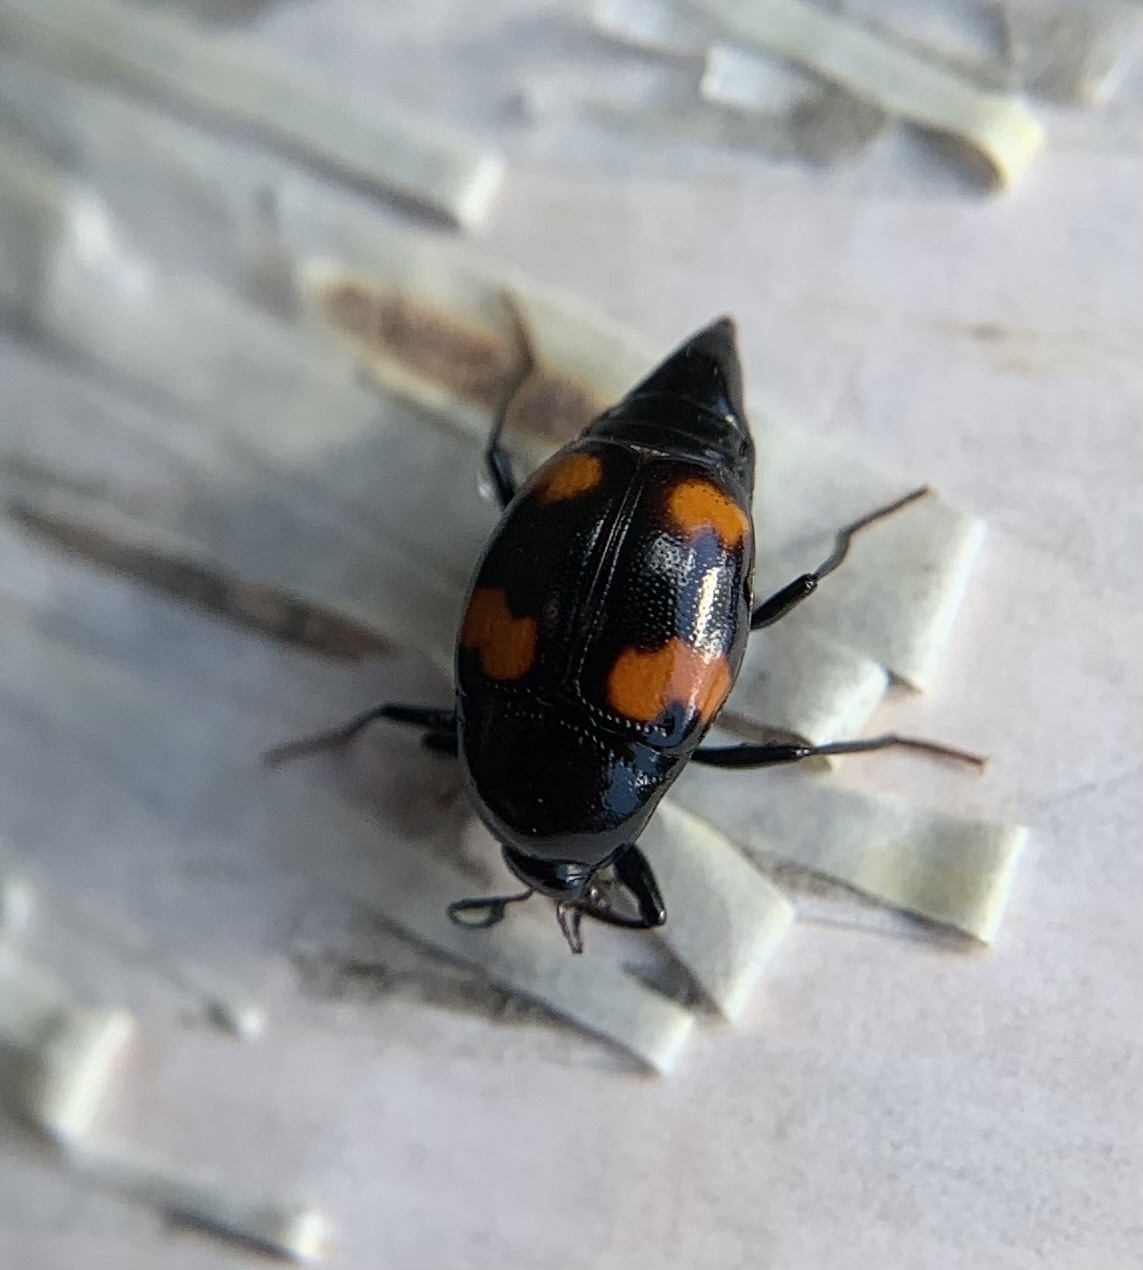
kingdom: Animalia
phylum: Arthropoda
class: Insecta
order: Coleoptera
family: Staphylinidae
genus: Scaphidium
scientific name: Scaphidium quadrimaculatum
